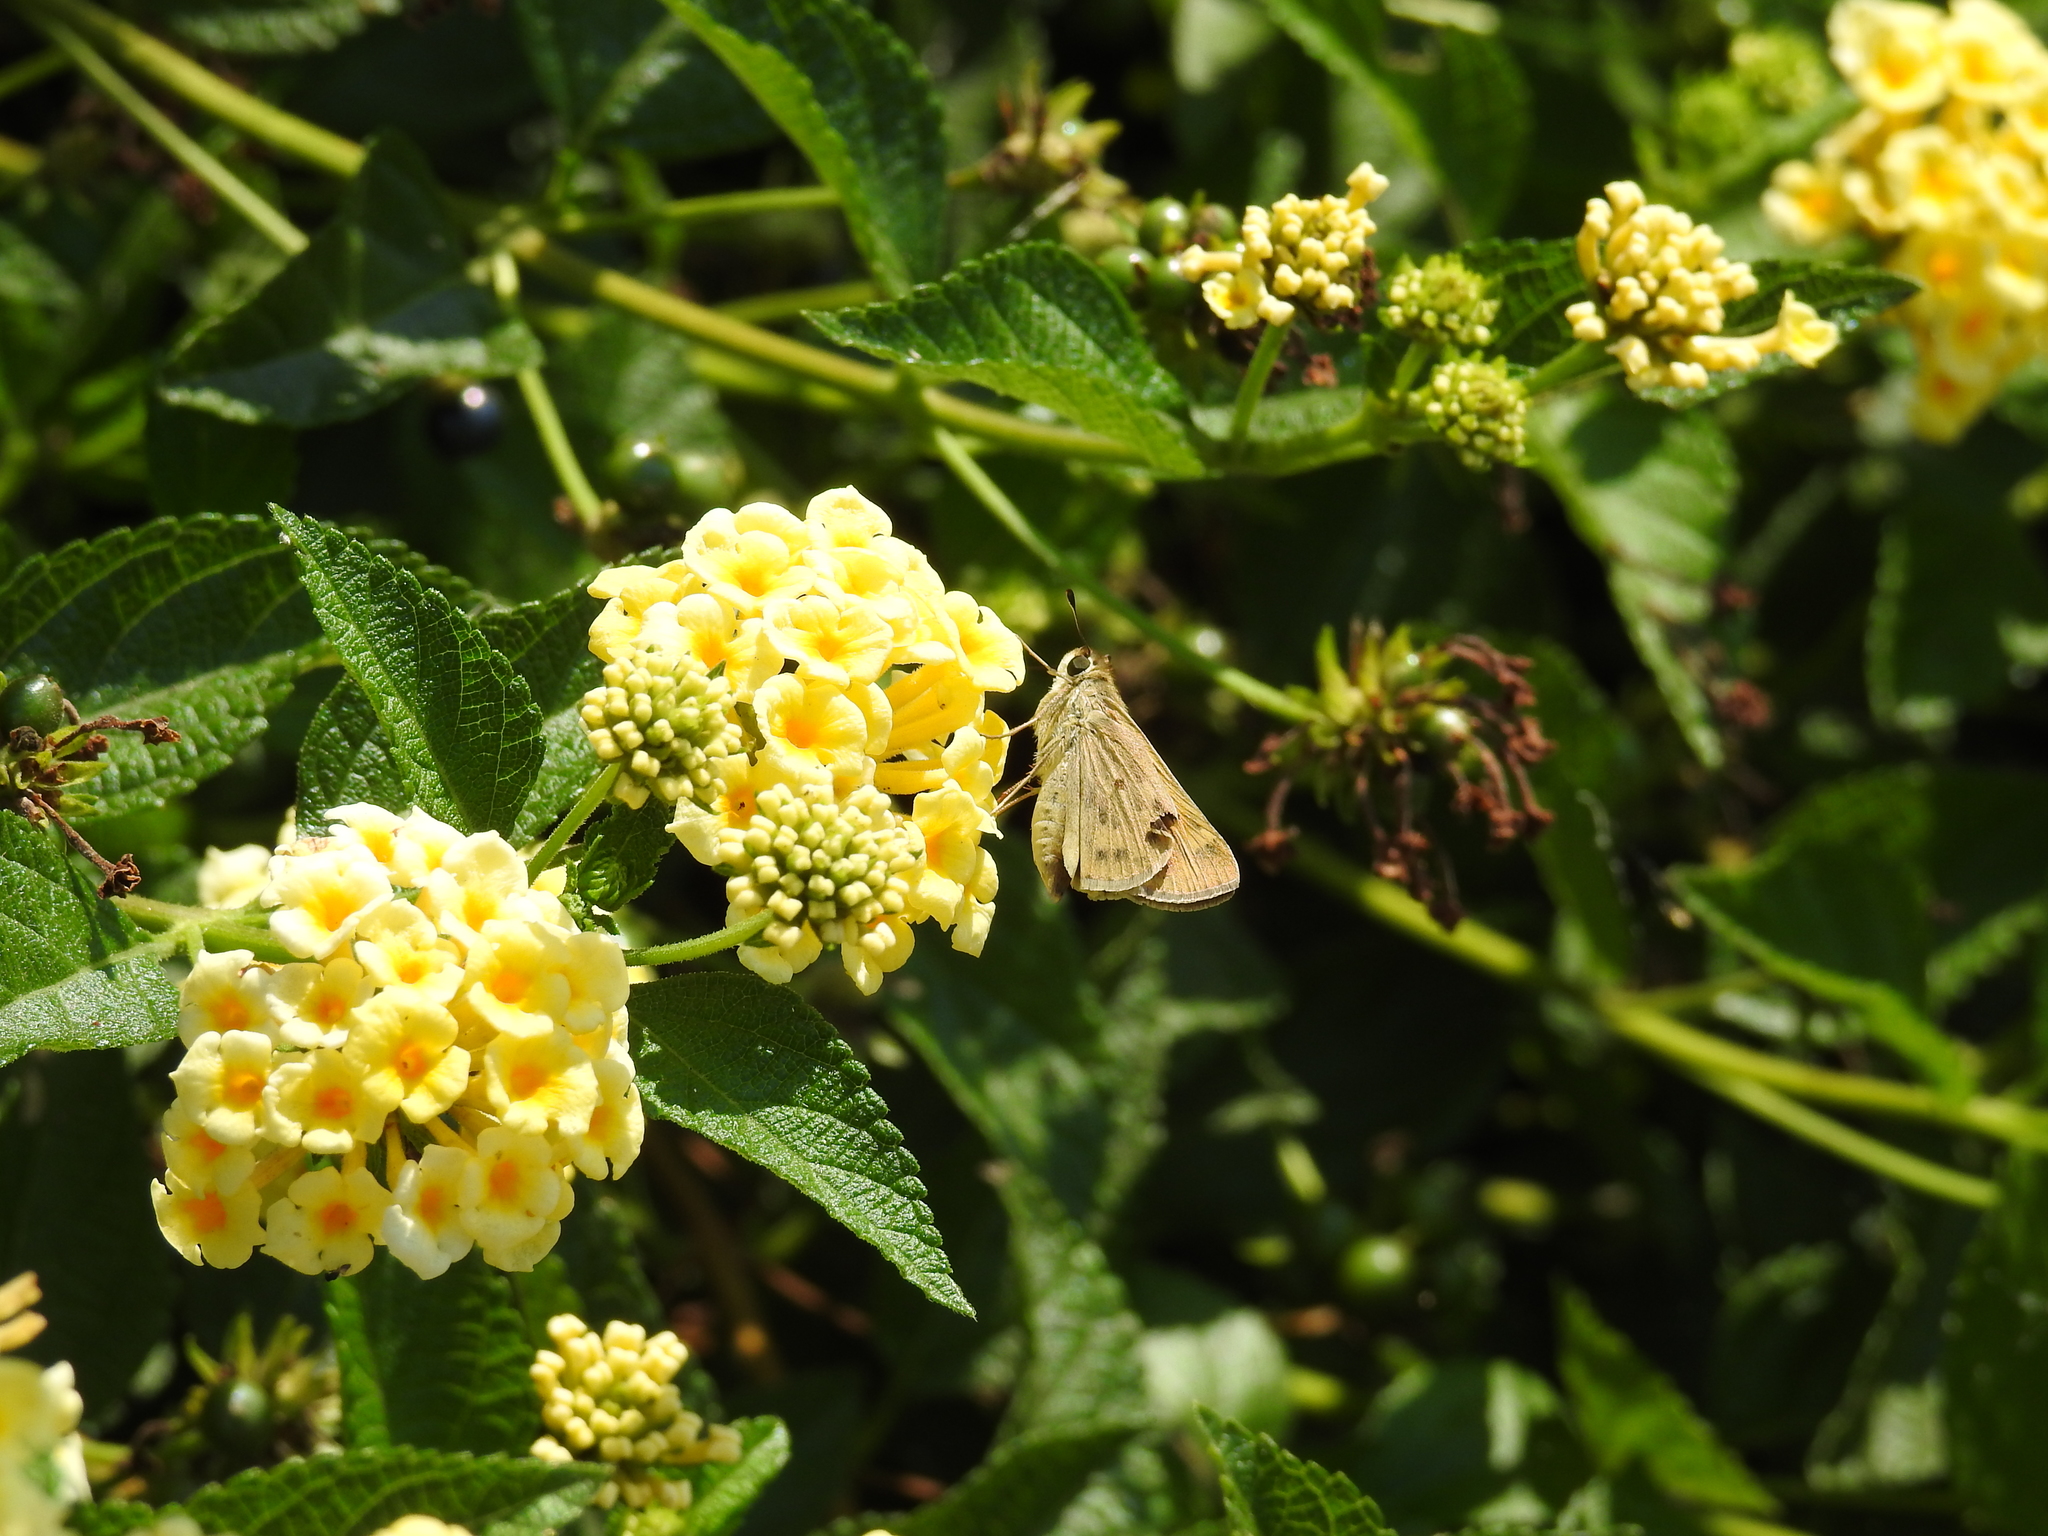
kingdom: Animalia
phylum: Arthropoda
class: Insecta
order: Lepidoptera
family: Hesperiidae
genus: Hylephila
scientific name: Hylephila phyleus
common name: Fiery skipper
